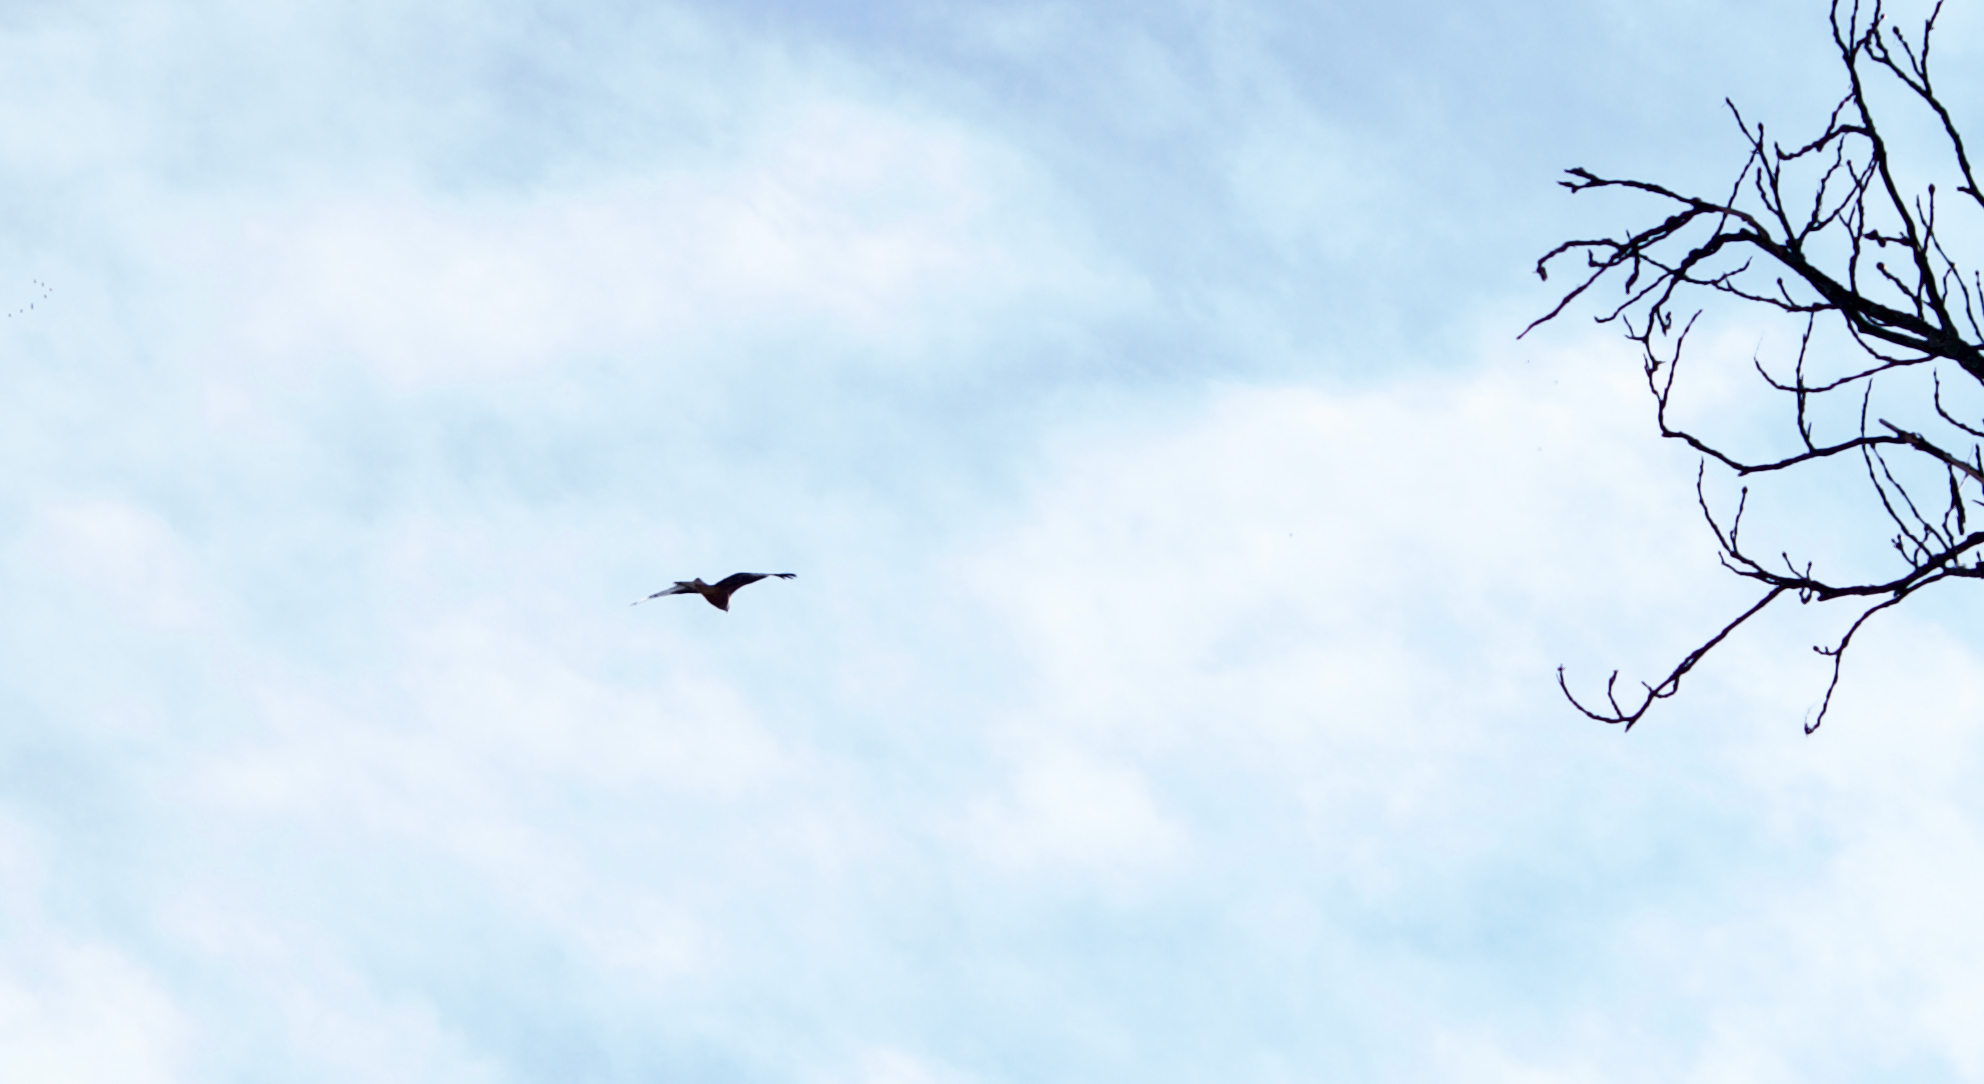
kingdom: Animalia
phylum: Chordata
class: Aves
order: Accipitriformes
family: Accipitridae
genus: Milvus
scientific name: Milvus milvus
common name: Red kite
